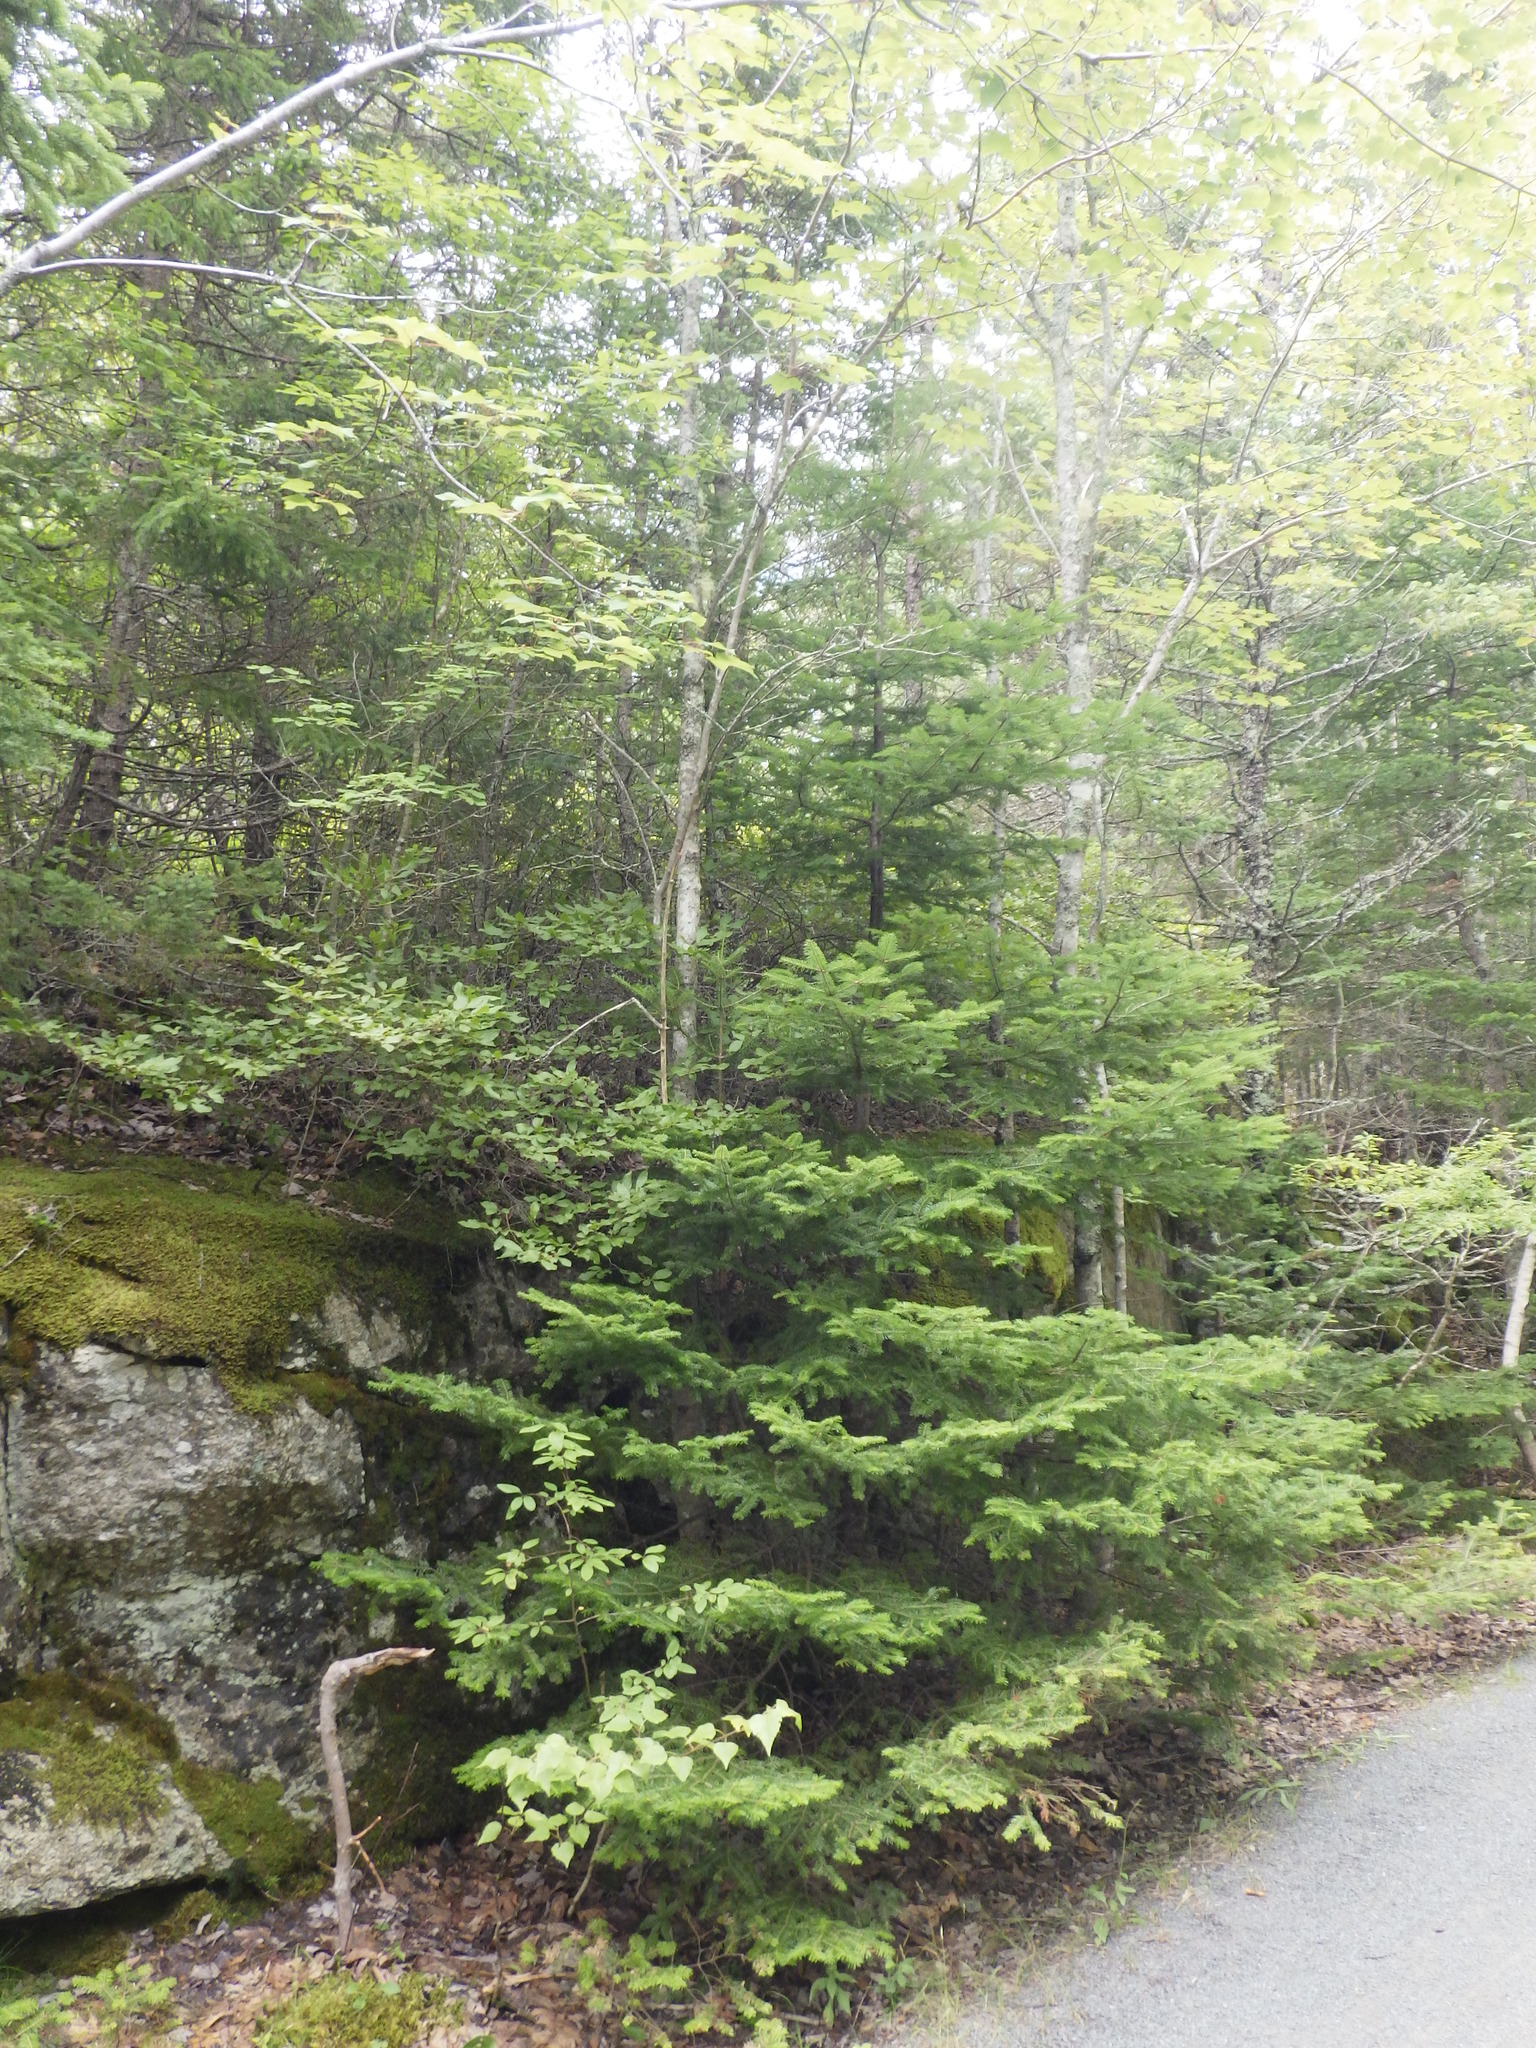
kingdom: Plantae
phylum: Tracheophyta
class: Pinopsida
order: Pinales
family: Pinaceae
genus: Abies
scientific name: Abies balsamea
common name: Balsam fir
